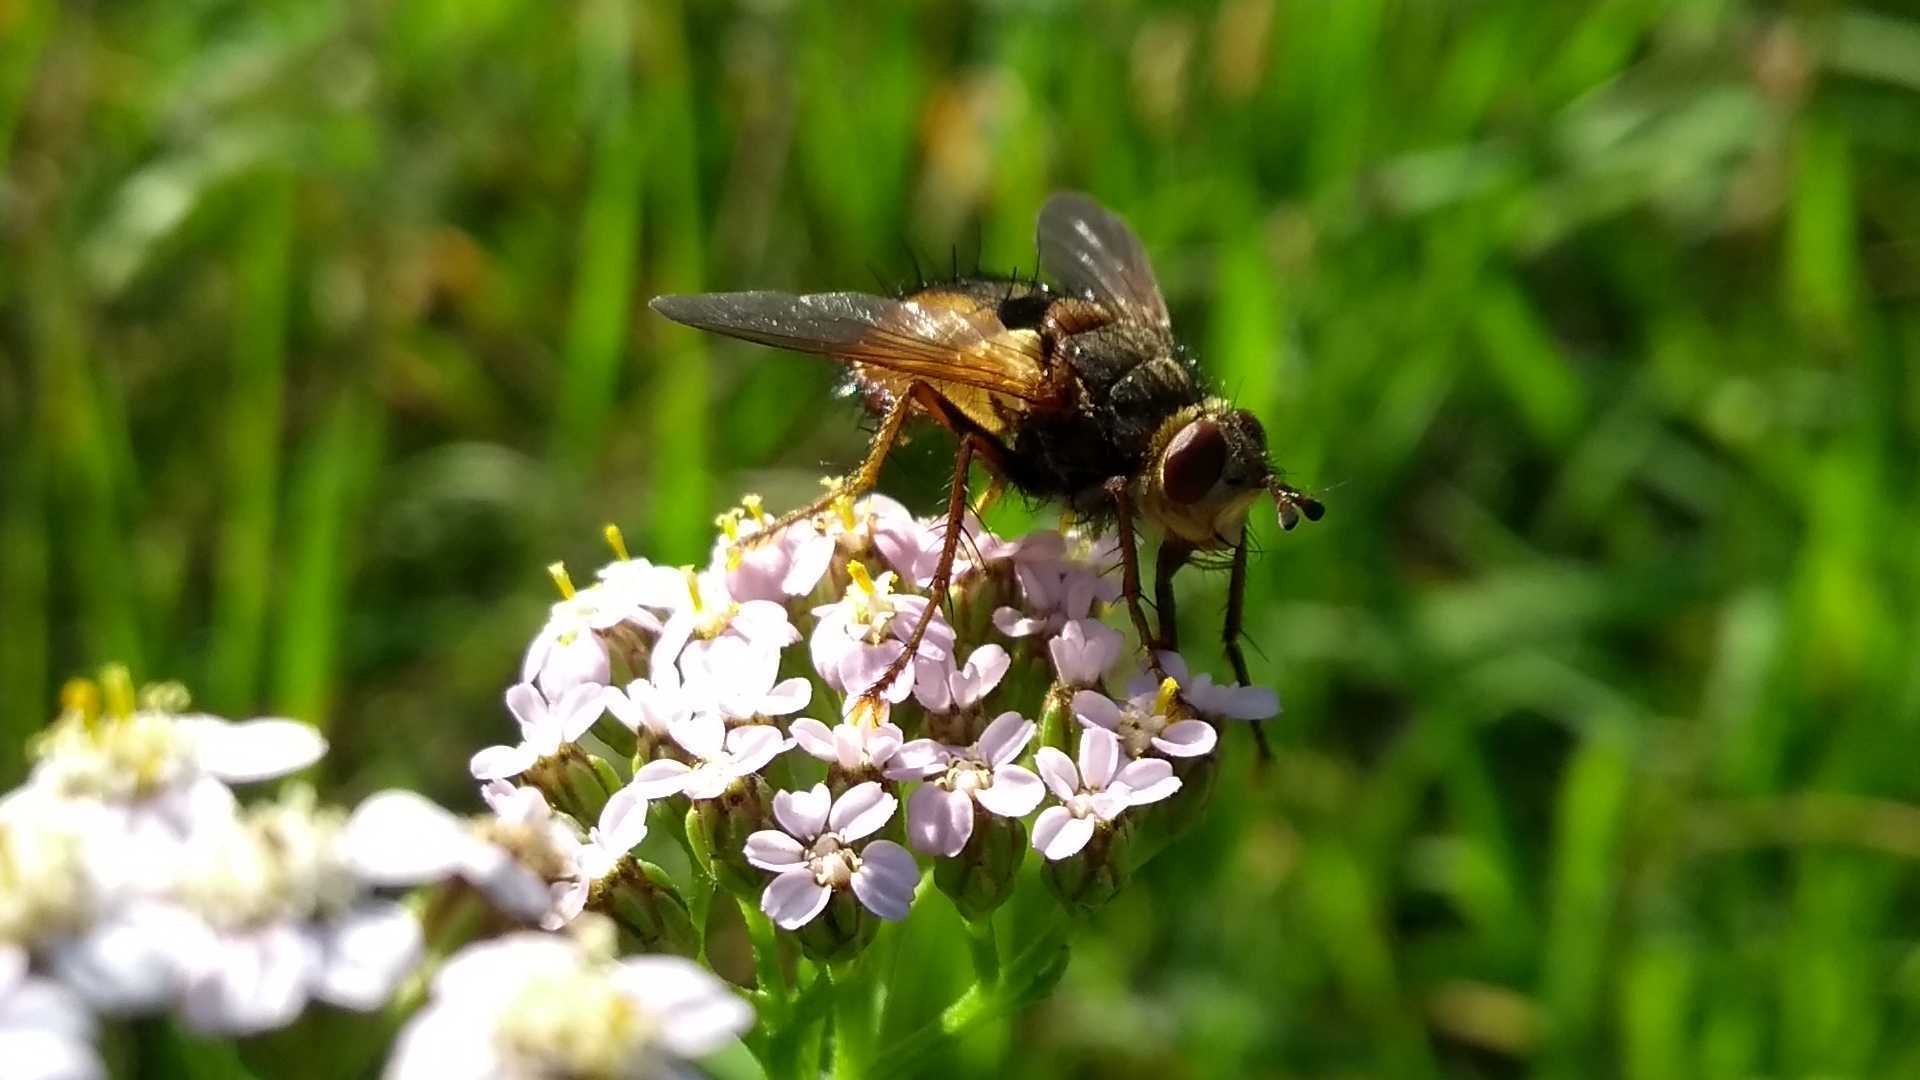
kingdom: Animalia
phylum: Arthropoda
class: Insecta
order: Diptera
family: Tachinidae
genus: Tachina
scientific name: Tachina
